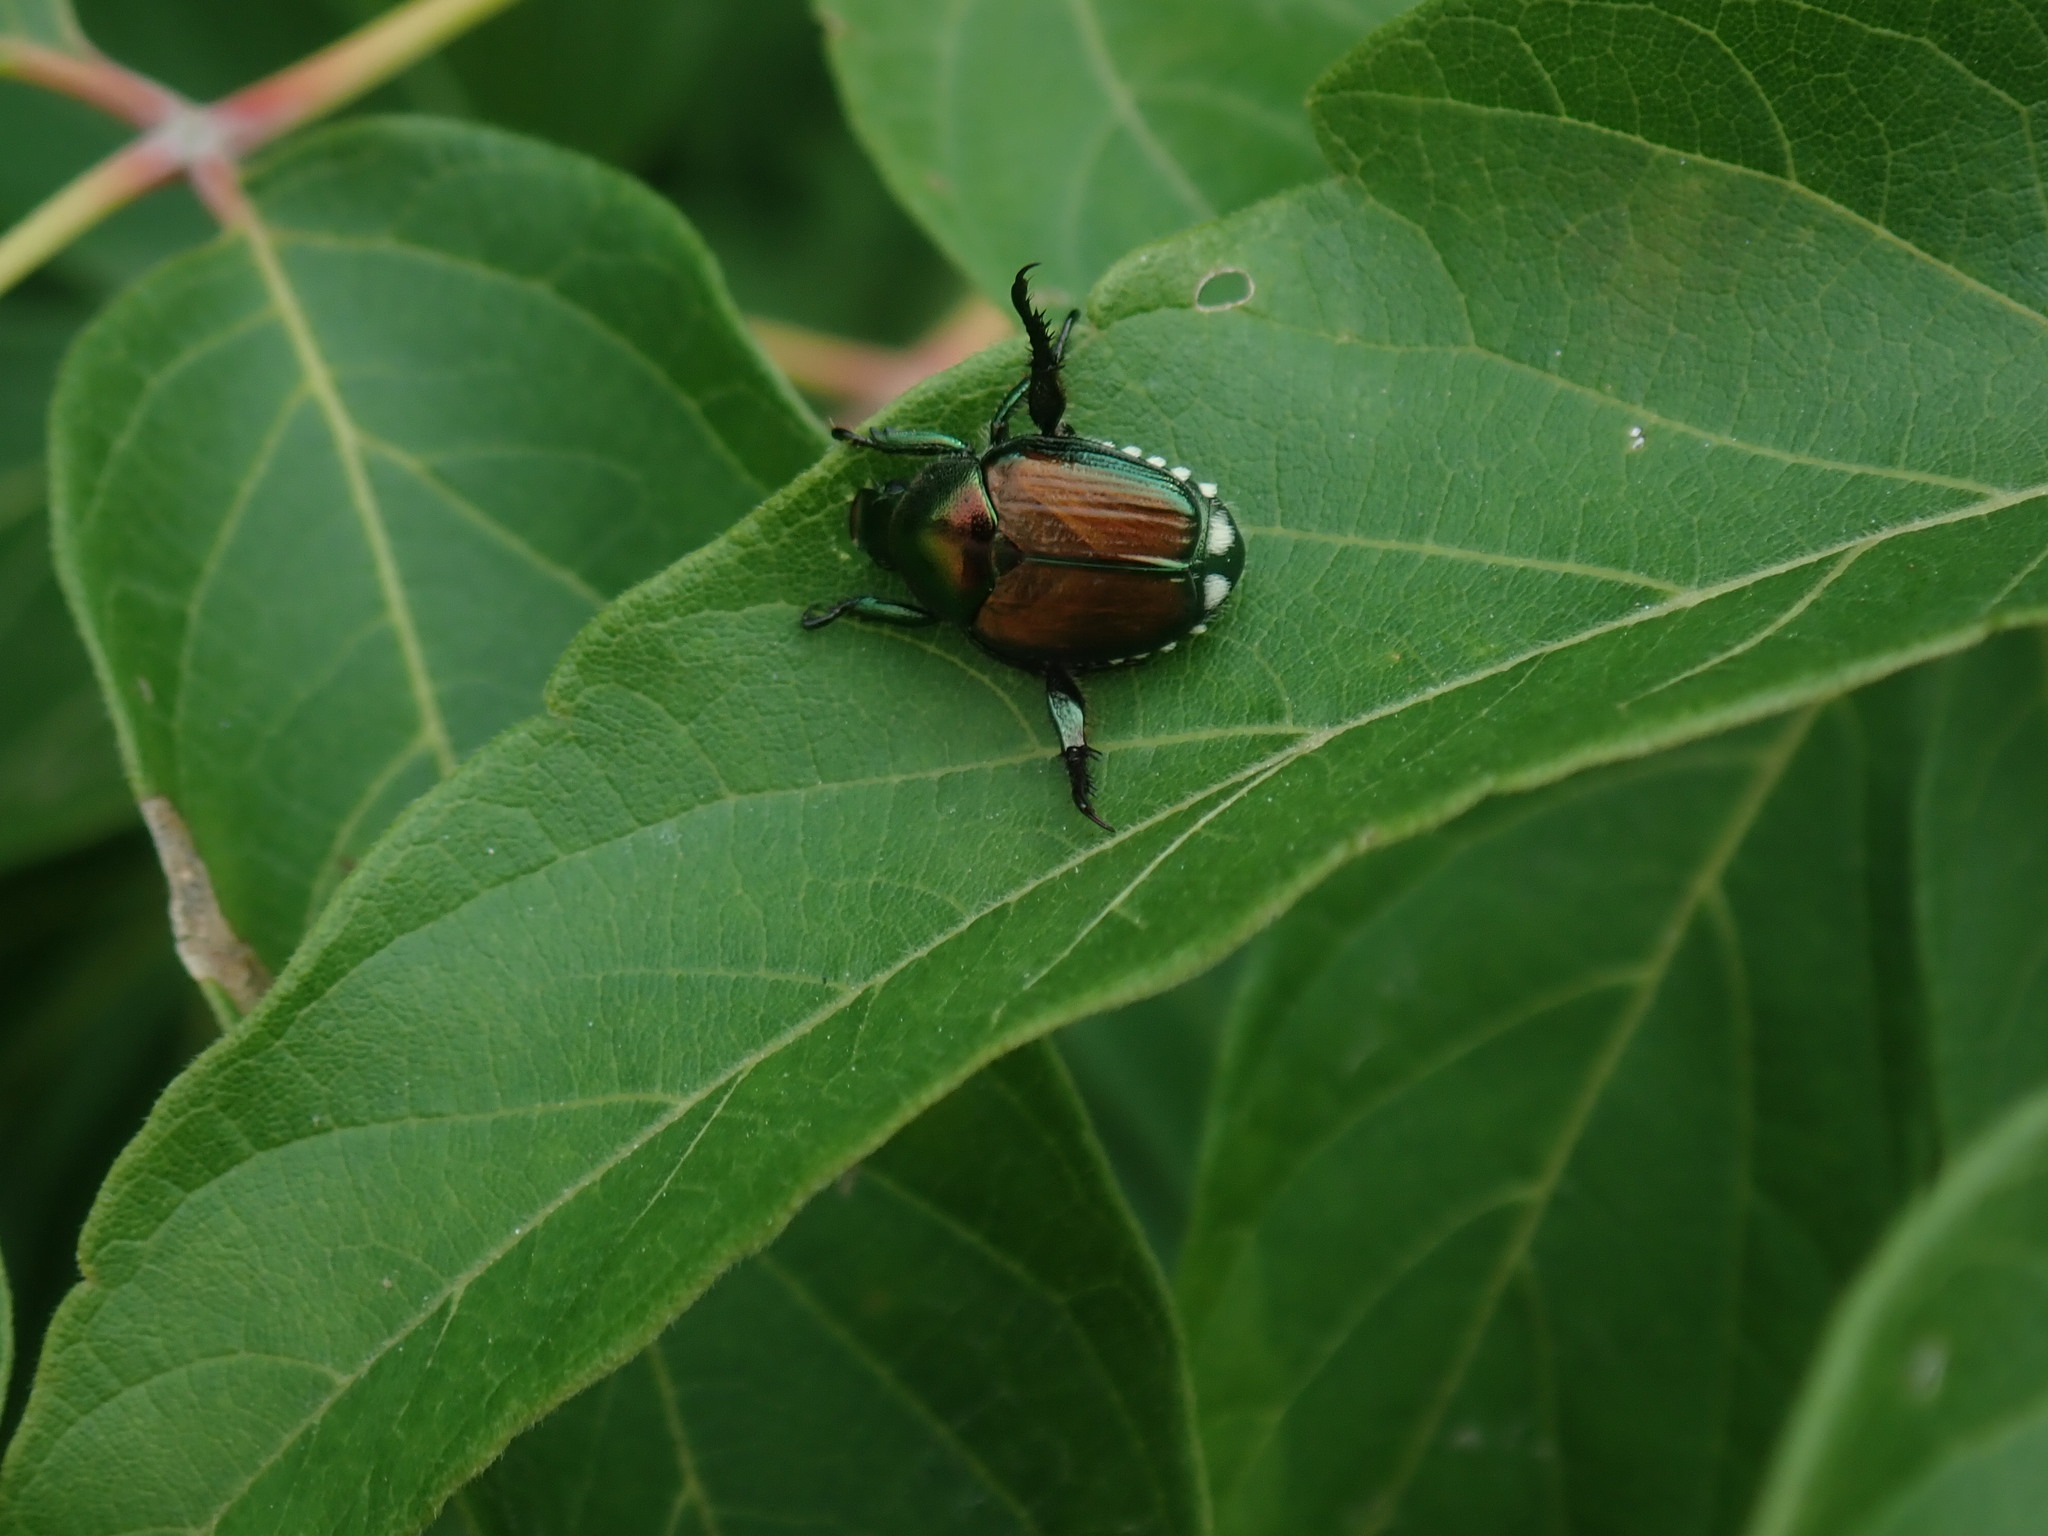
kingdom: Animalia
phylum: Arthropoda
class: Insecta
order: Coleoptera
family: Scarabaeidae
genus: Popillia
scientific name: Popillia japonica
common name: Japanese beetle
